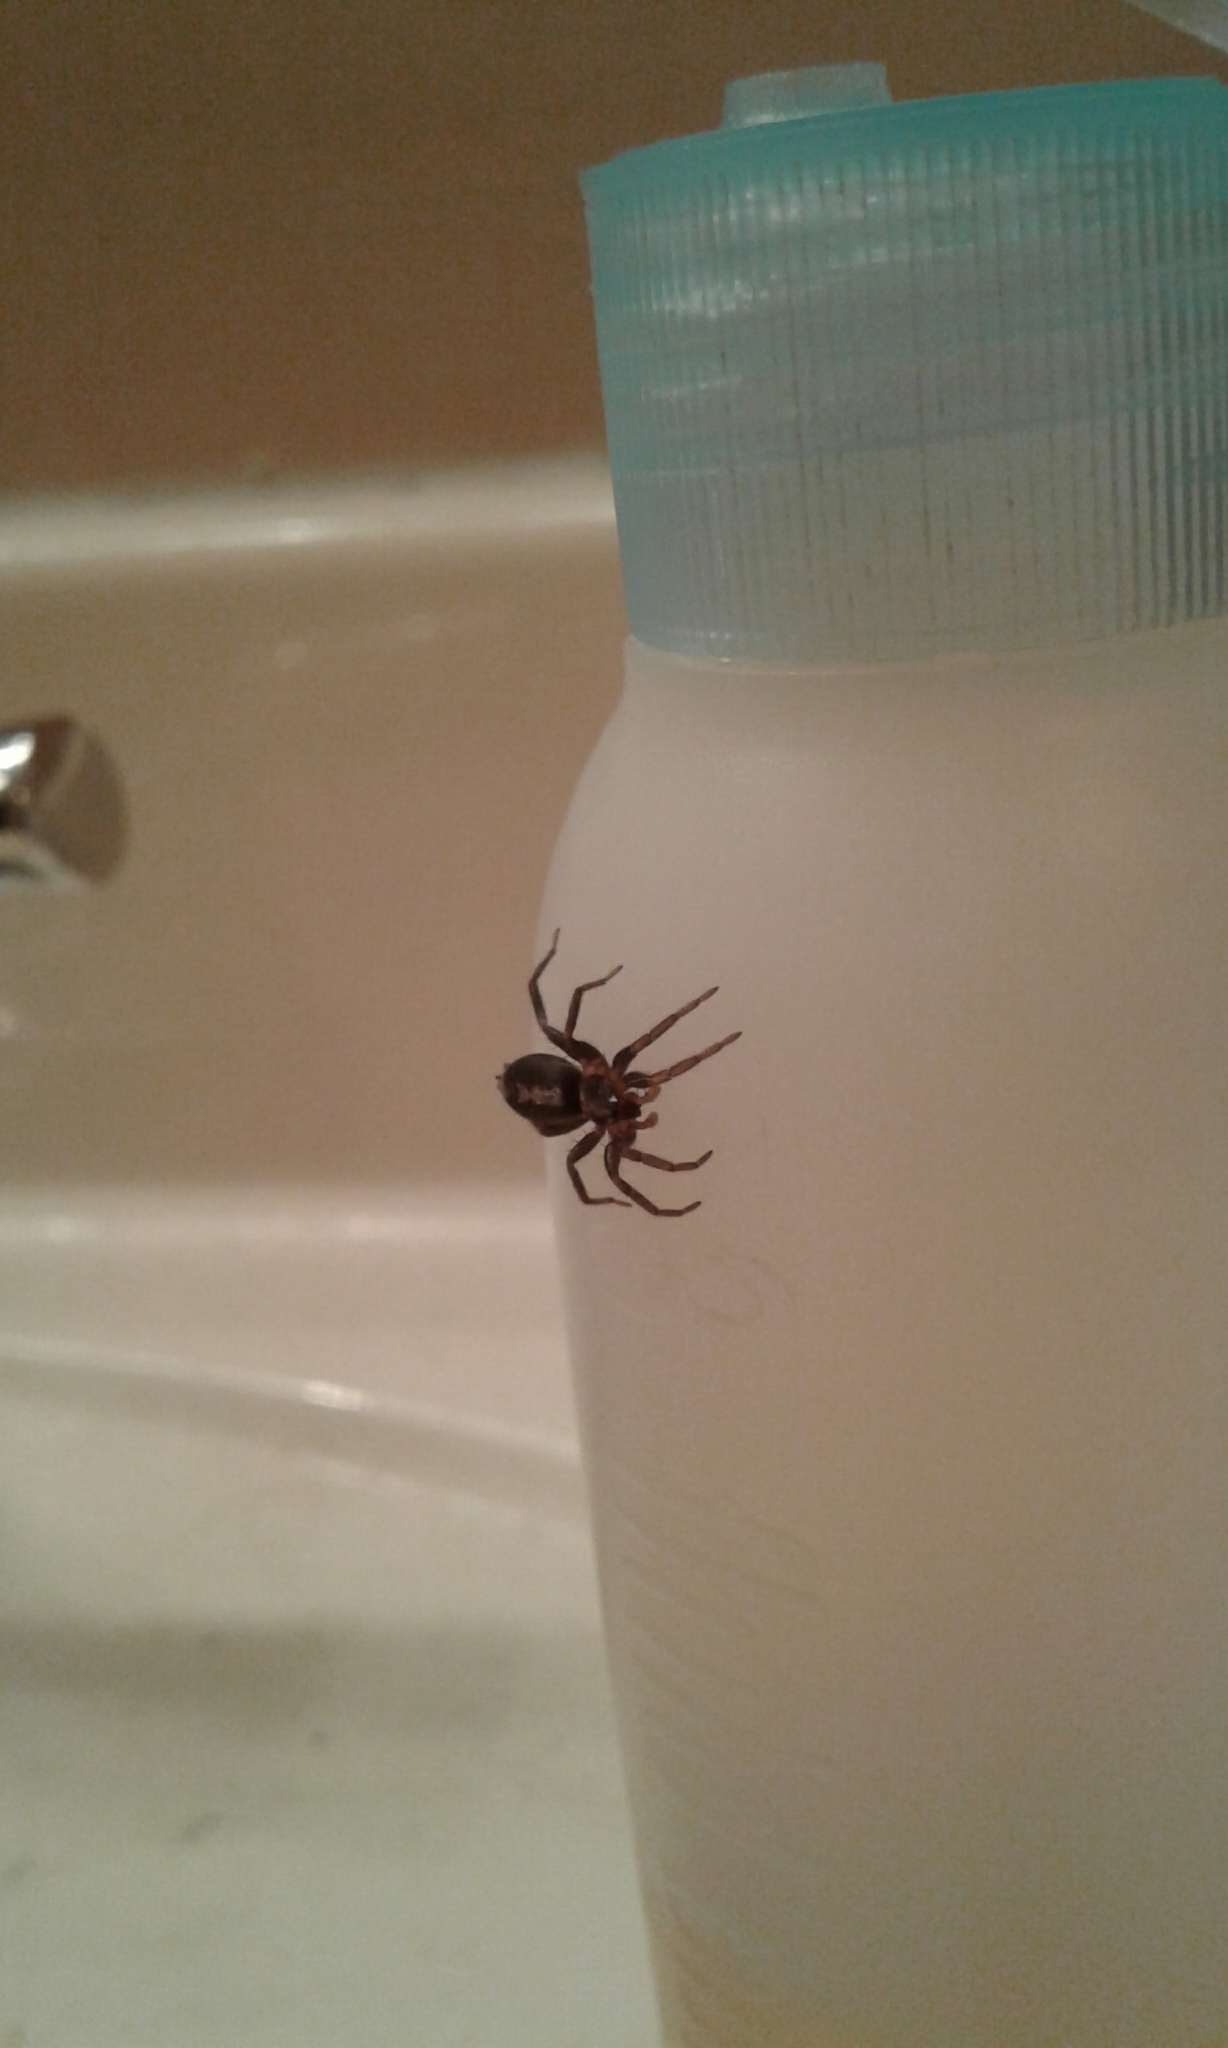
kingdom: Animalia
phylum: Arthropoda
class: Arachnida
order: Araneae
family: Gnaphosidae
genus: Herpyllus
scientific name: Herpyllus ecclesiasticus
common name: Eastern parson spider
